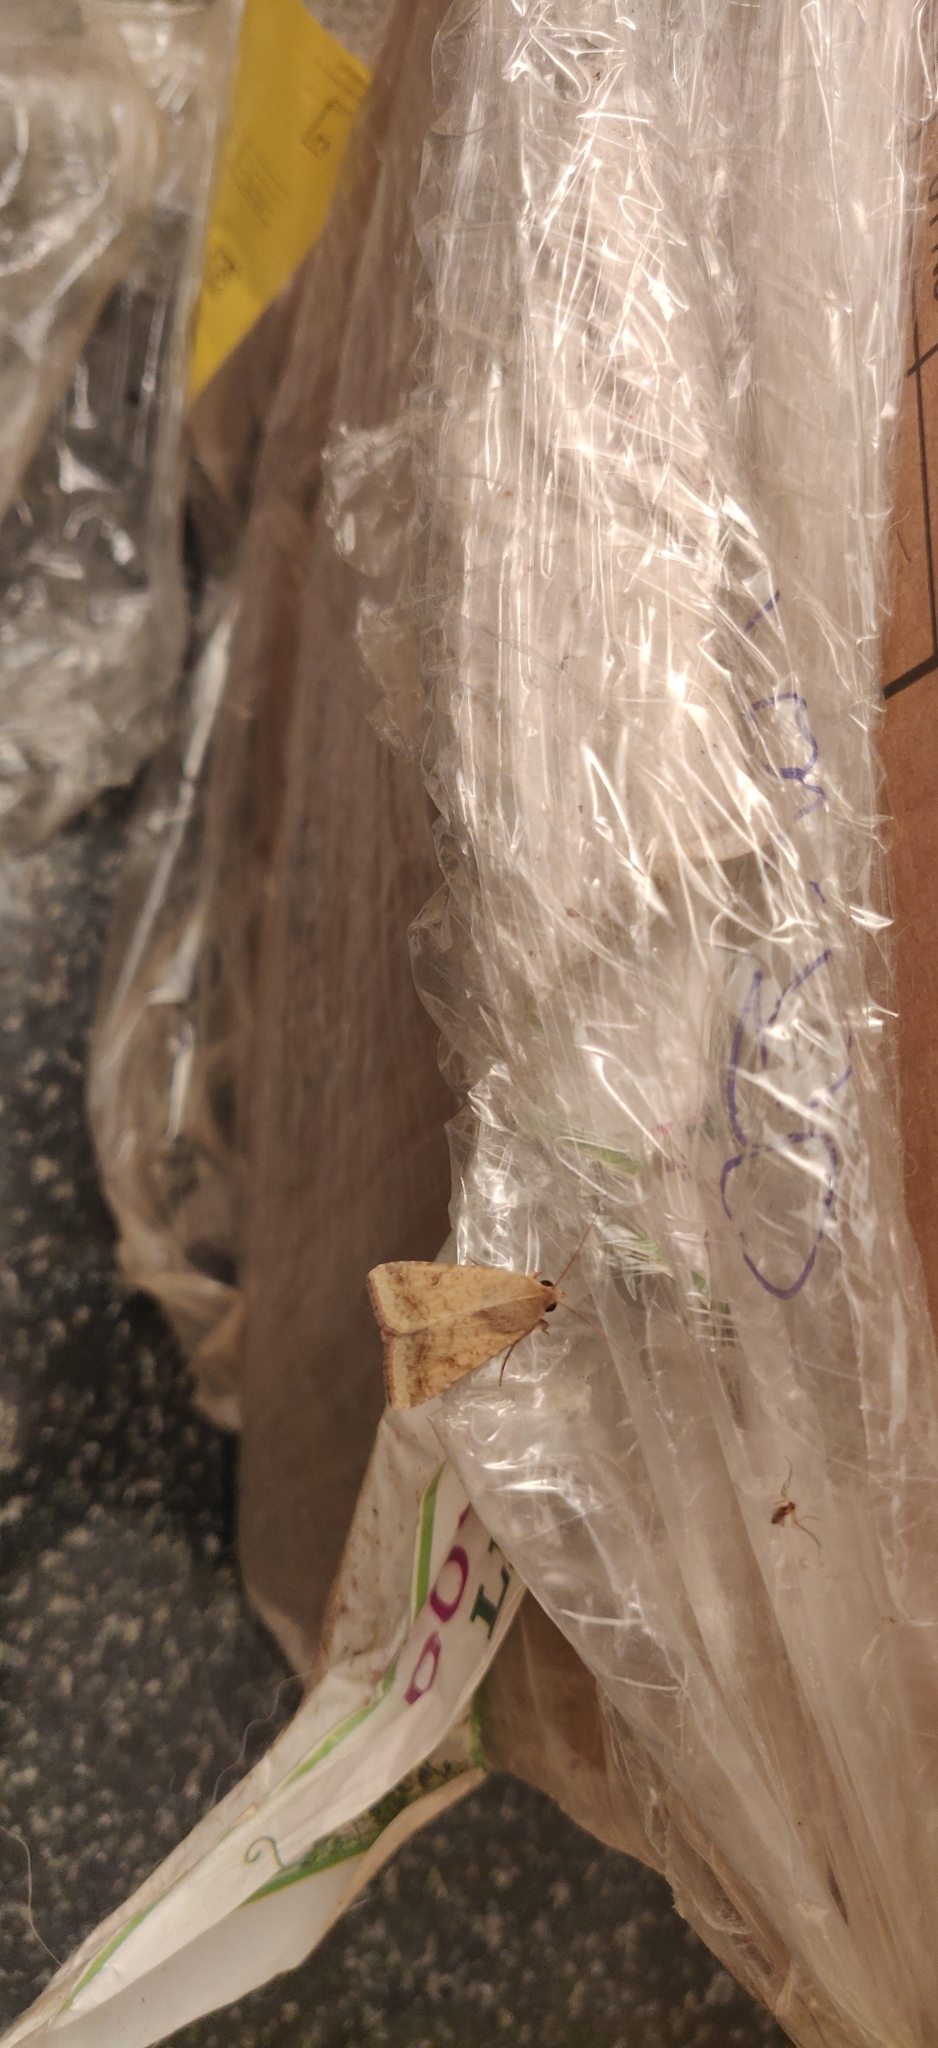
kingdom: Animalia
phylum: Arthropoda
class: Insecta
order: Lepidoptera
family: Noctuidae
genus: Helicoverpa
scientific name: Helicoverpa armigera
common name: Cotton bollworm
